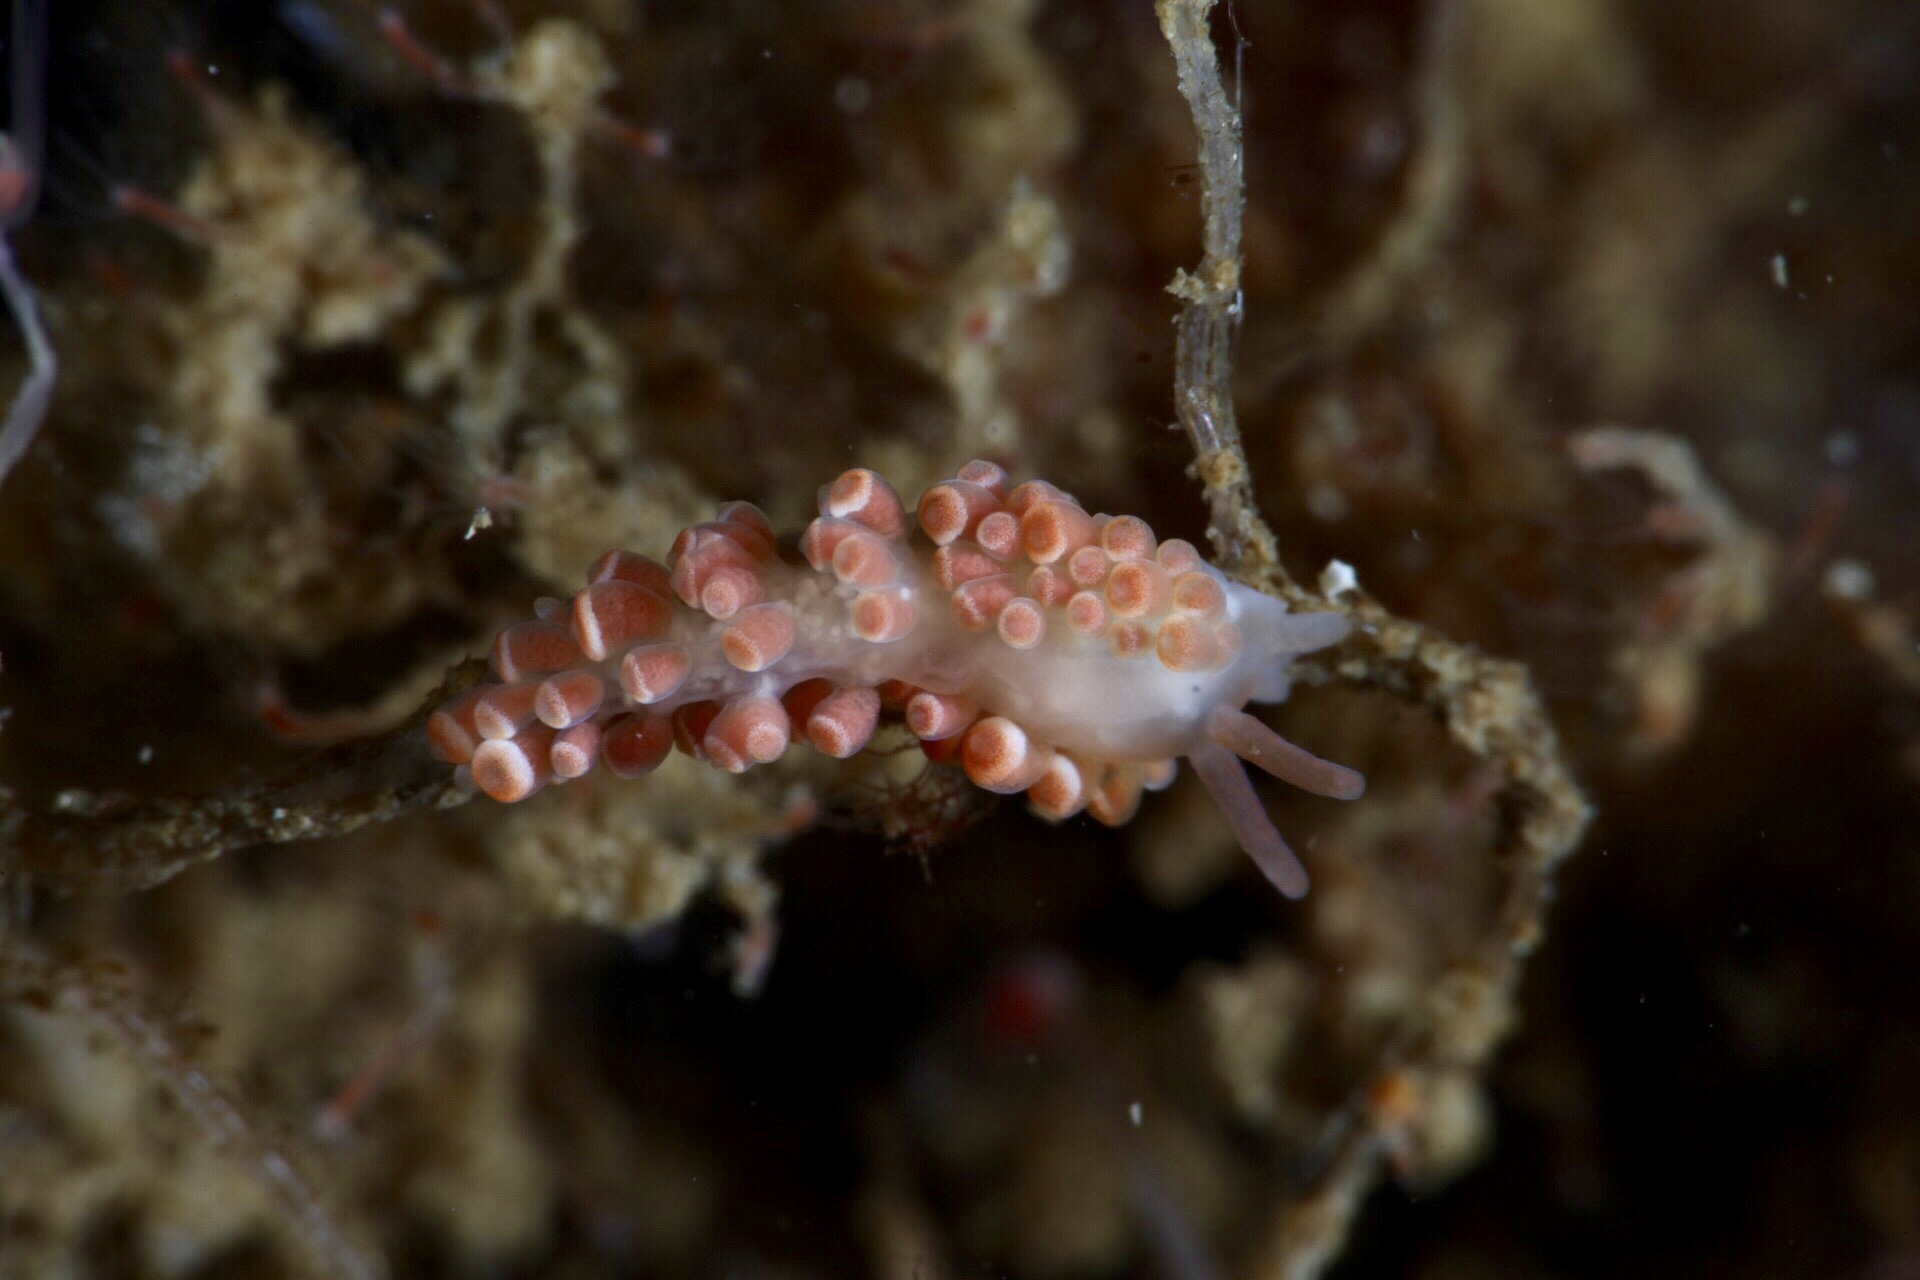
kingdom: Animalia
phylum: Mollusca
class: Gastropoda
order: Nudibranchia
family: Trinchesiidae
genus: Catriona
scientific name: Catriona aurantia
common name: Corange-tip cuthona
